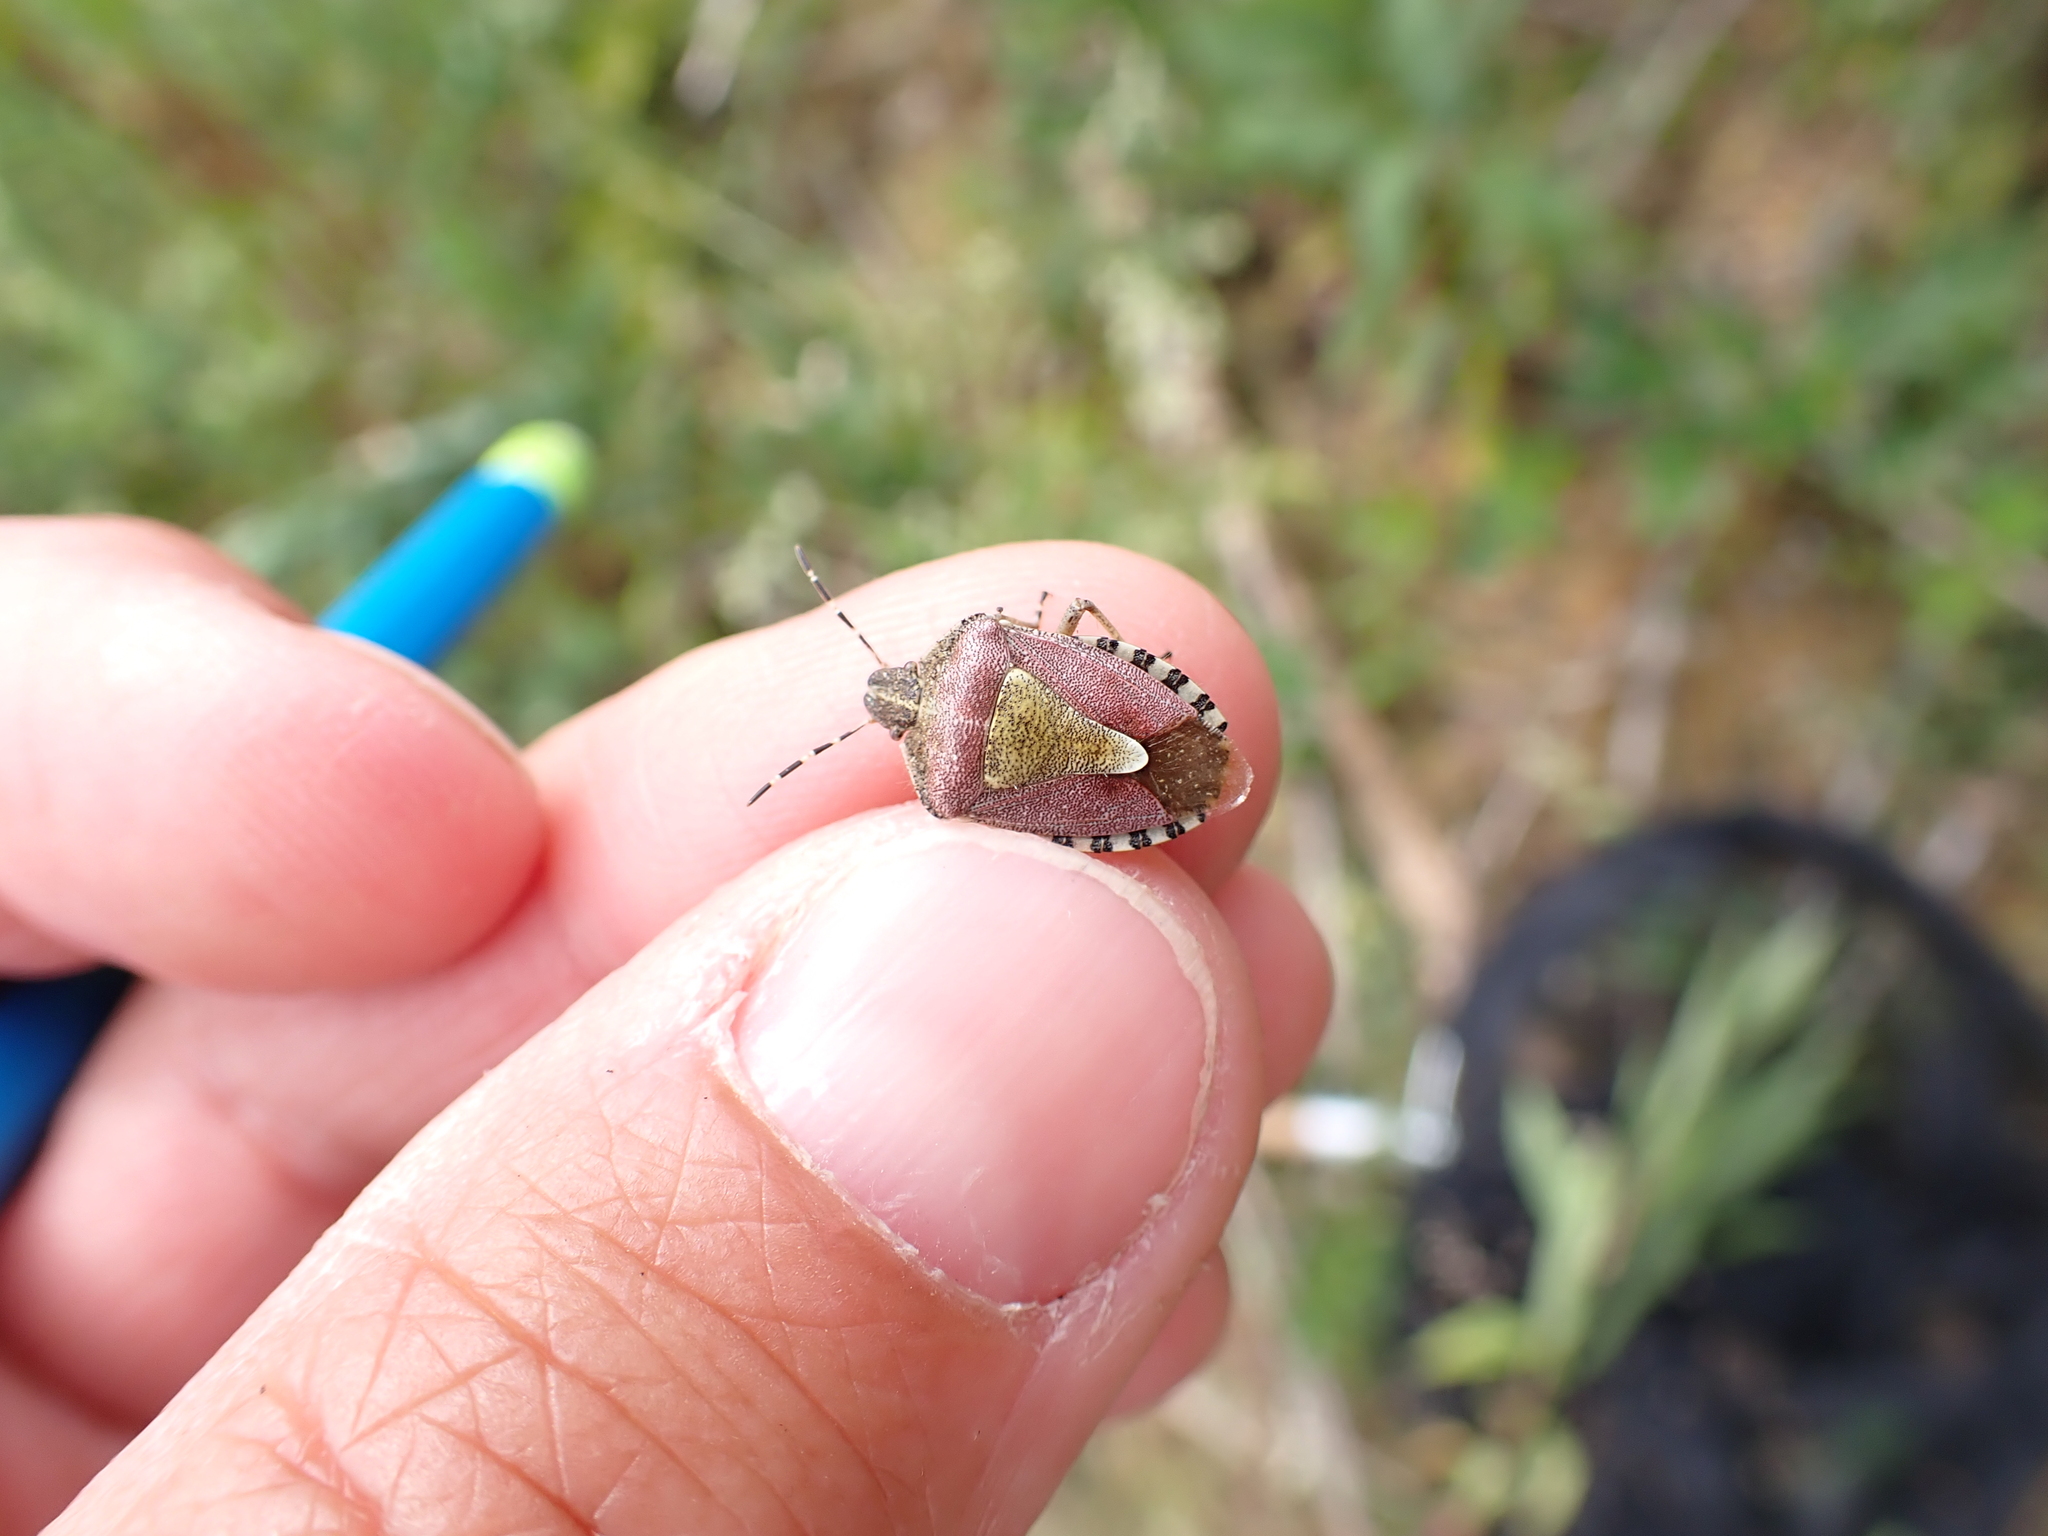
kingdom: Animalia
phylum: Arthropoda
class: Insecta
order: Hemiptera
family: Pentatomidae
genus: Dolycoris
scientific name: Dolycoris baccarum
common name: Sloe bug
